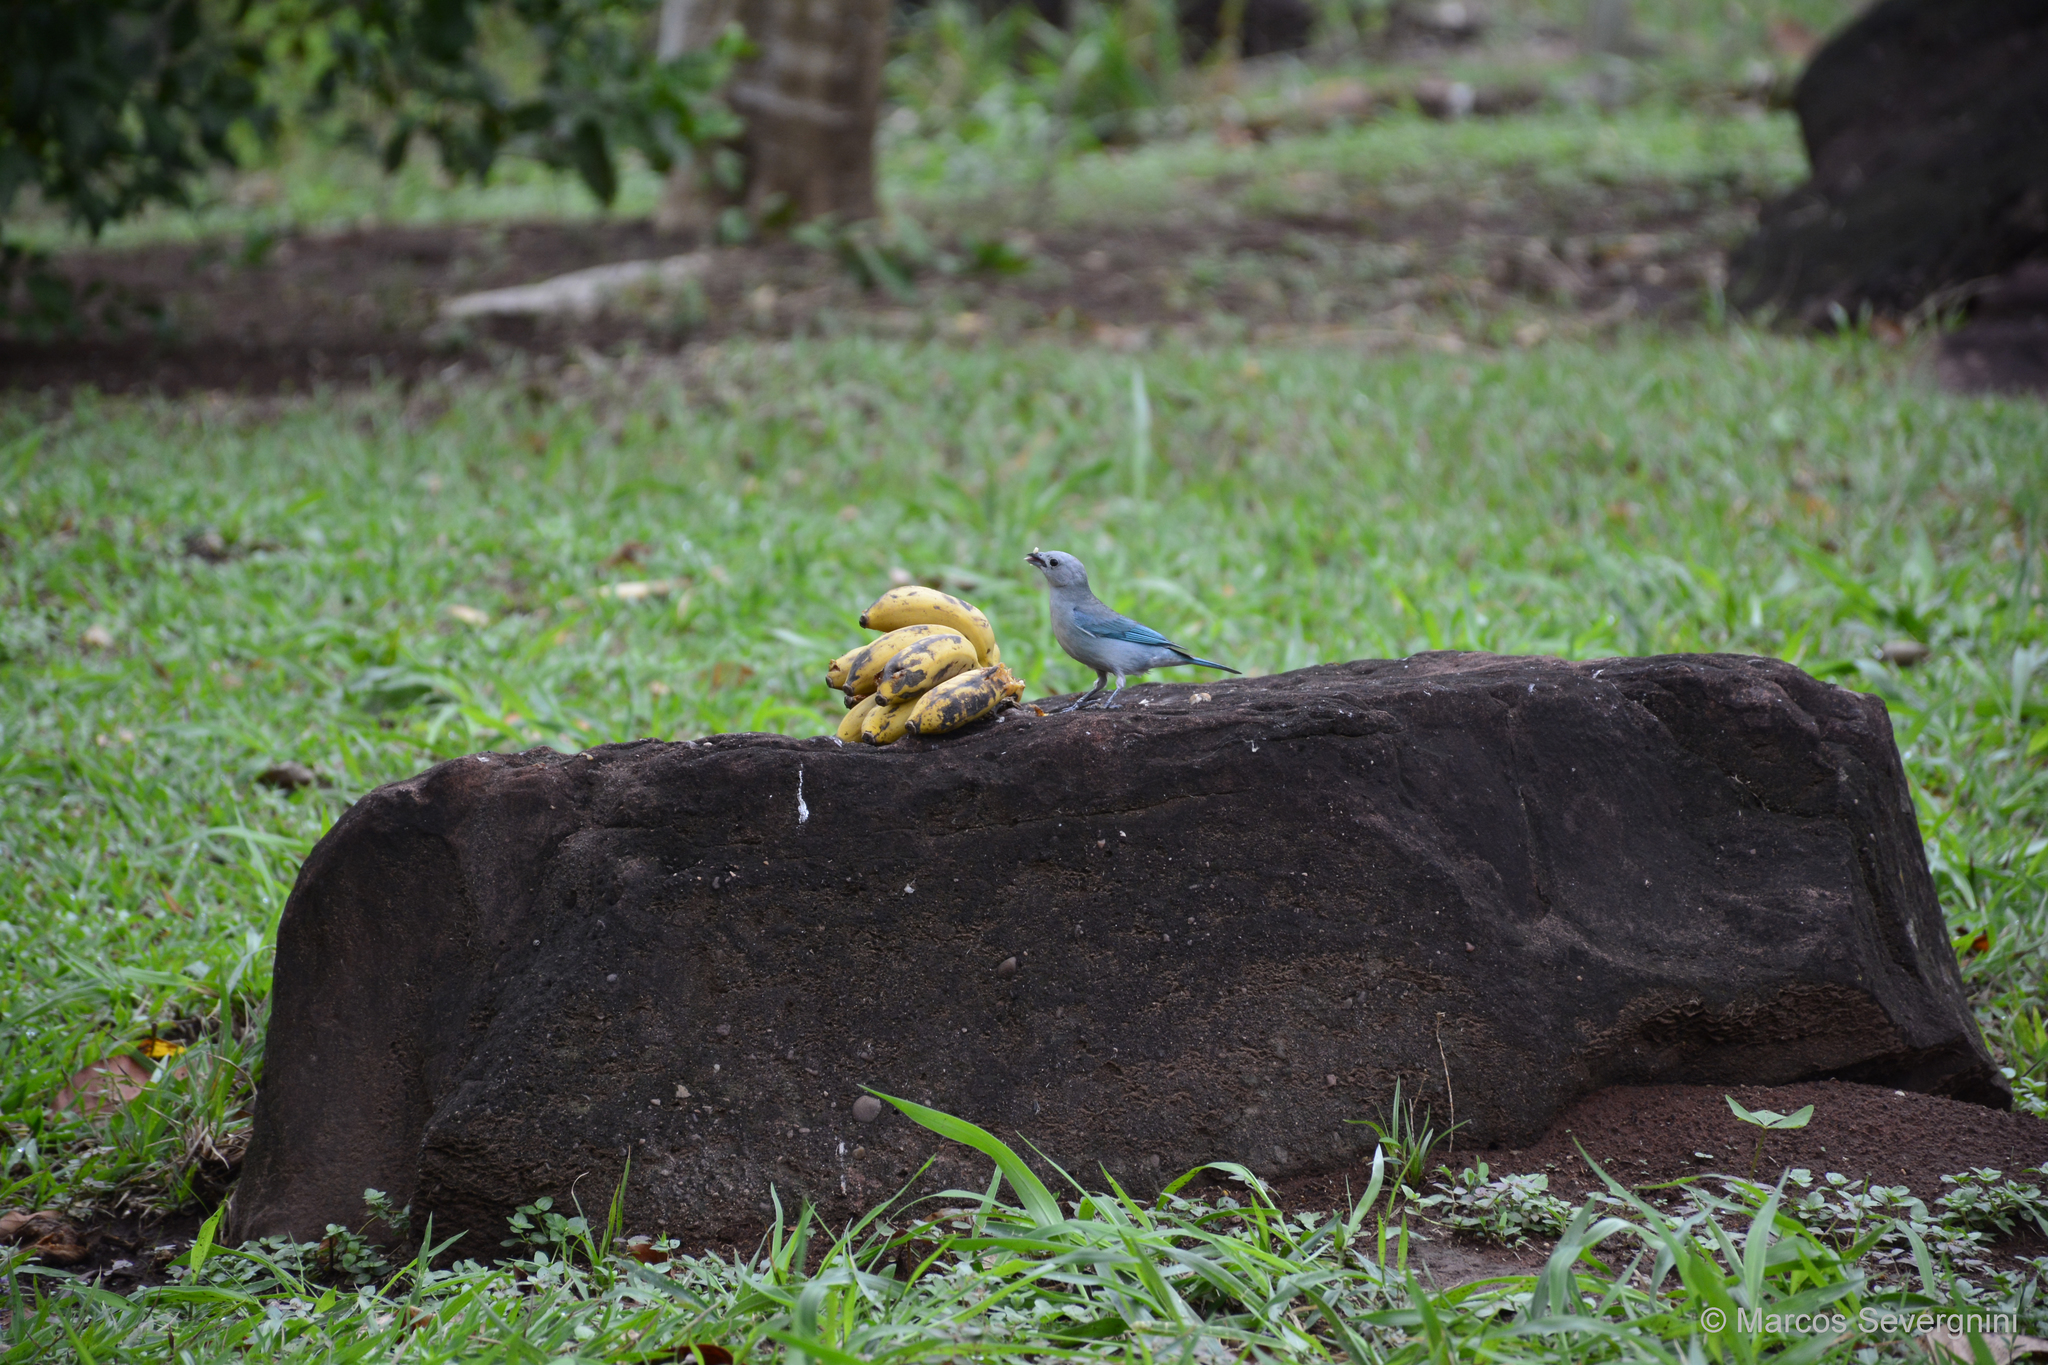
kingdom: Animalia
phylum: Chordata
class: Aves
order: Passeriformes
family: Thraupidae
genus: Thraupis
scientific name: Thraupis sayaca
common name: Sayaca tanager
